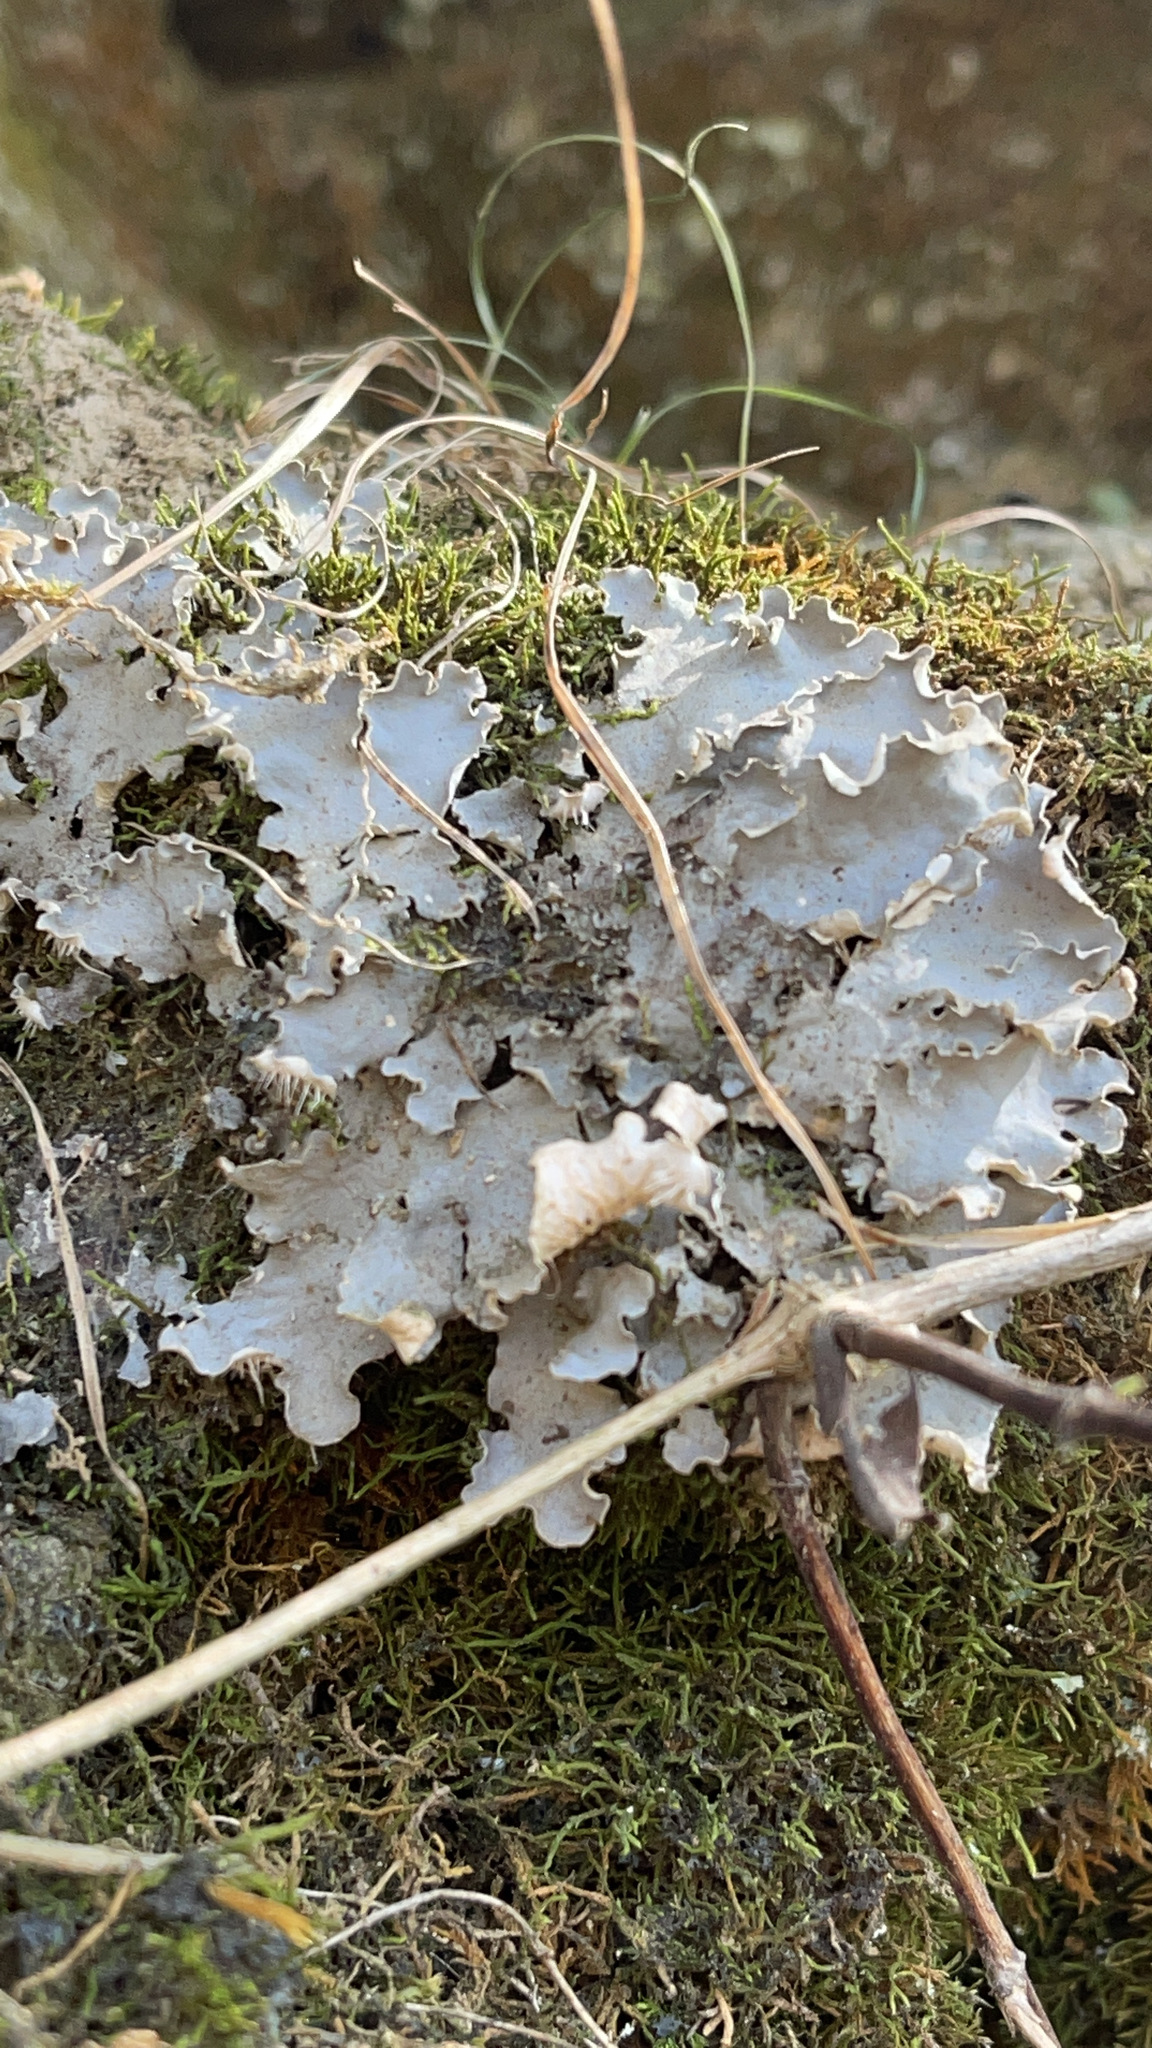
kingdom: Fungi
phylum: Ascomycota
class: Lecanoromycetes
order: Peltigerales
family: Peltigeraceae
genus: Peltigera
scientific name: Peltigera
